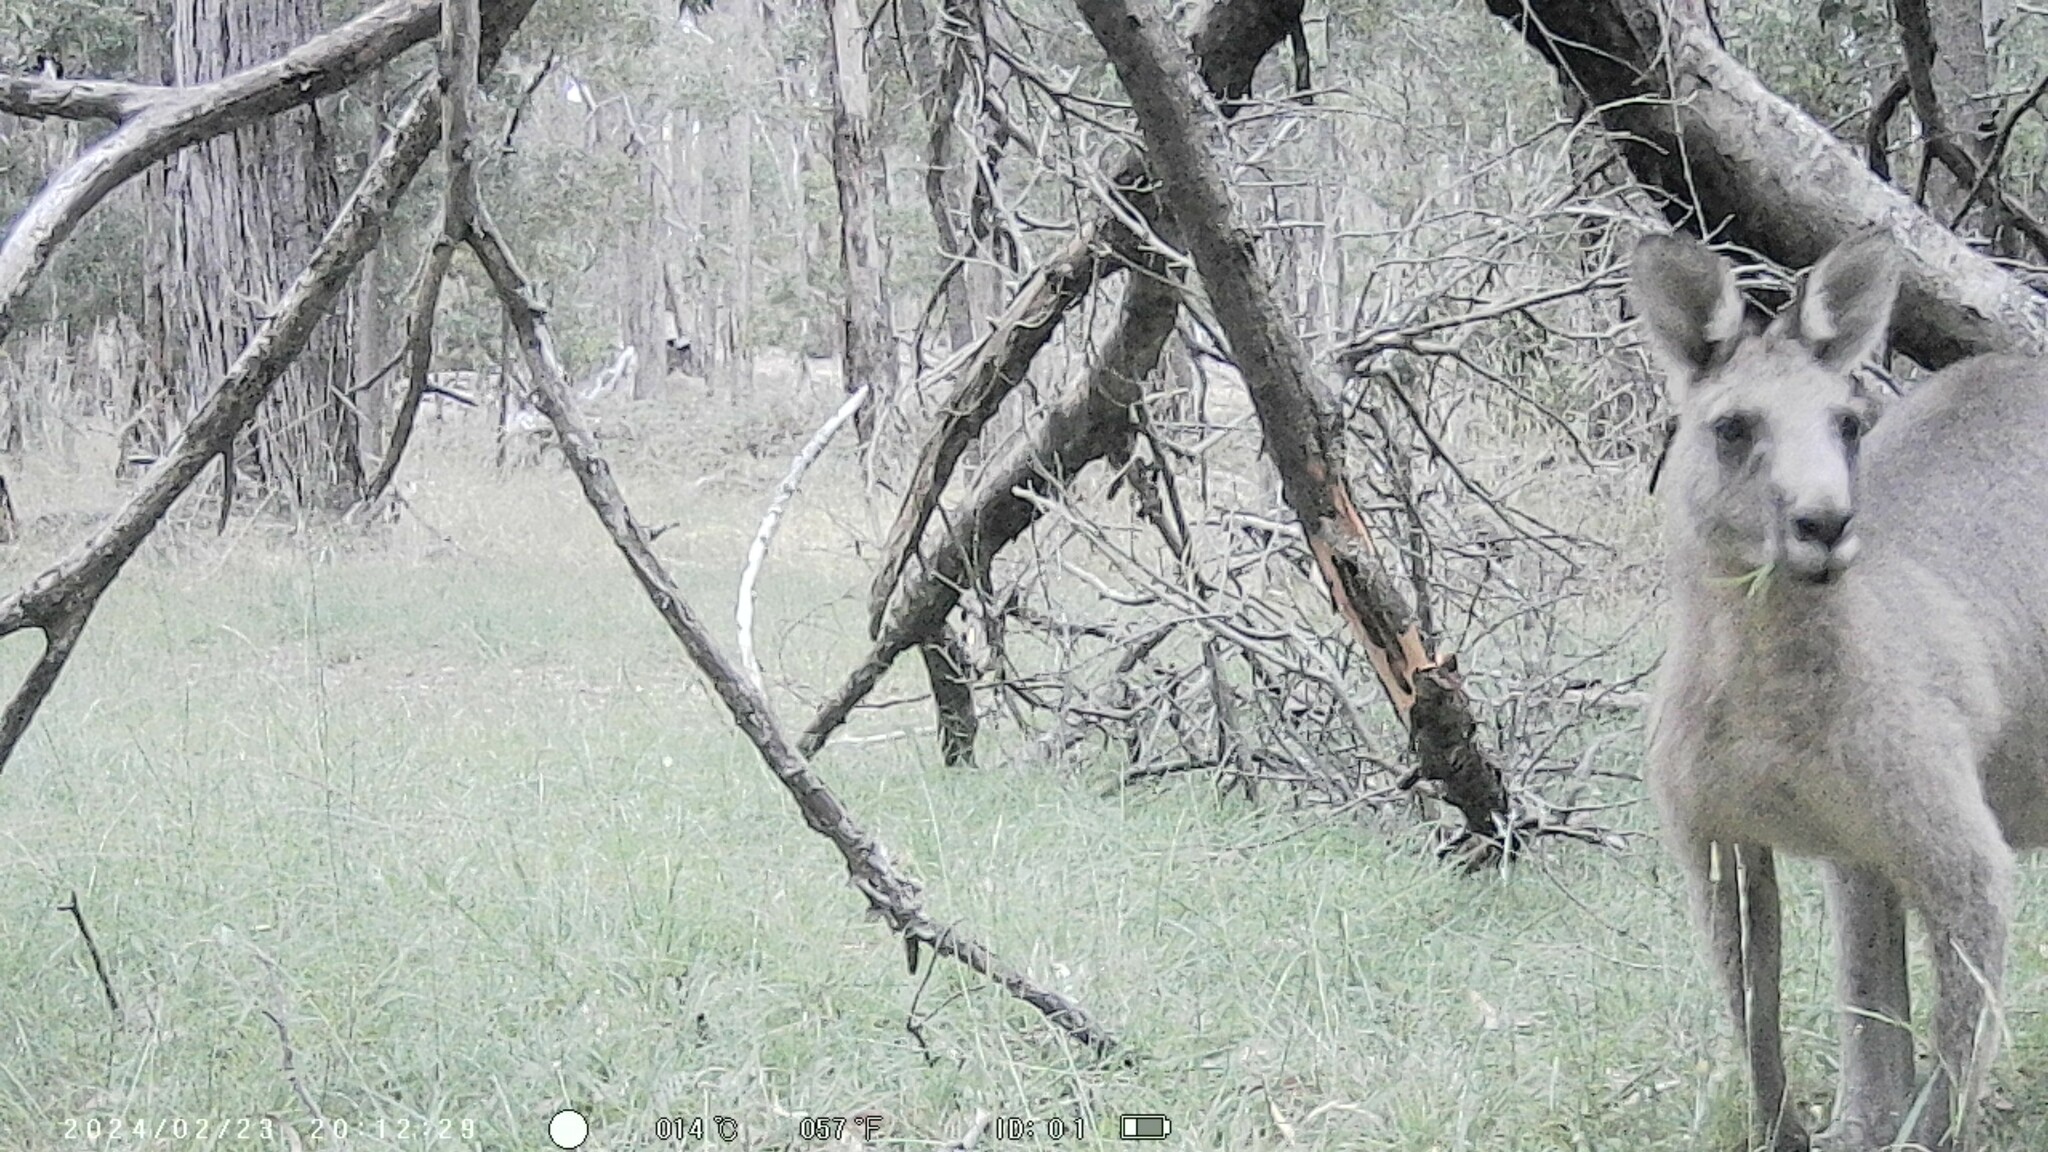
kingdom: Animalia
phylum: Chordata
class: Mammalia
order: Diprotodontia
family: Macropodidae
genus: Macropus
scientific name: Macropus giganteus
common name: Eastern grey kangaroo
